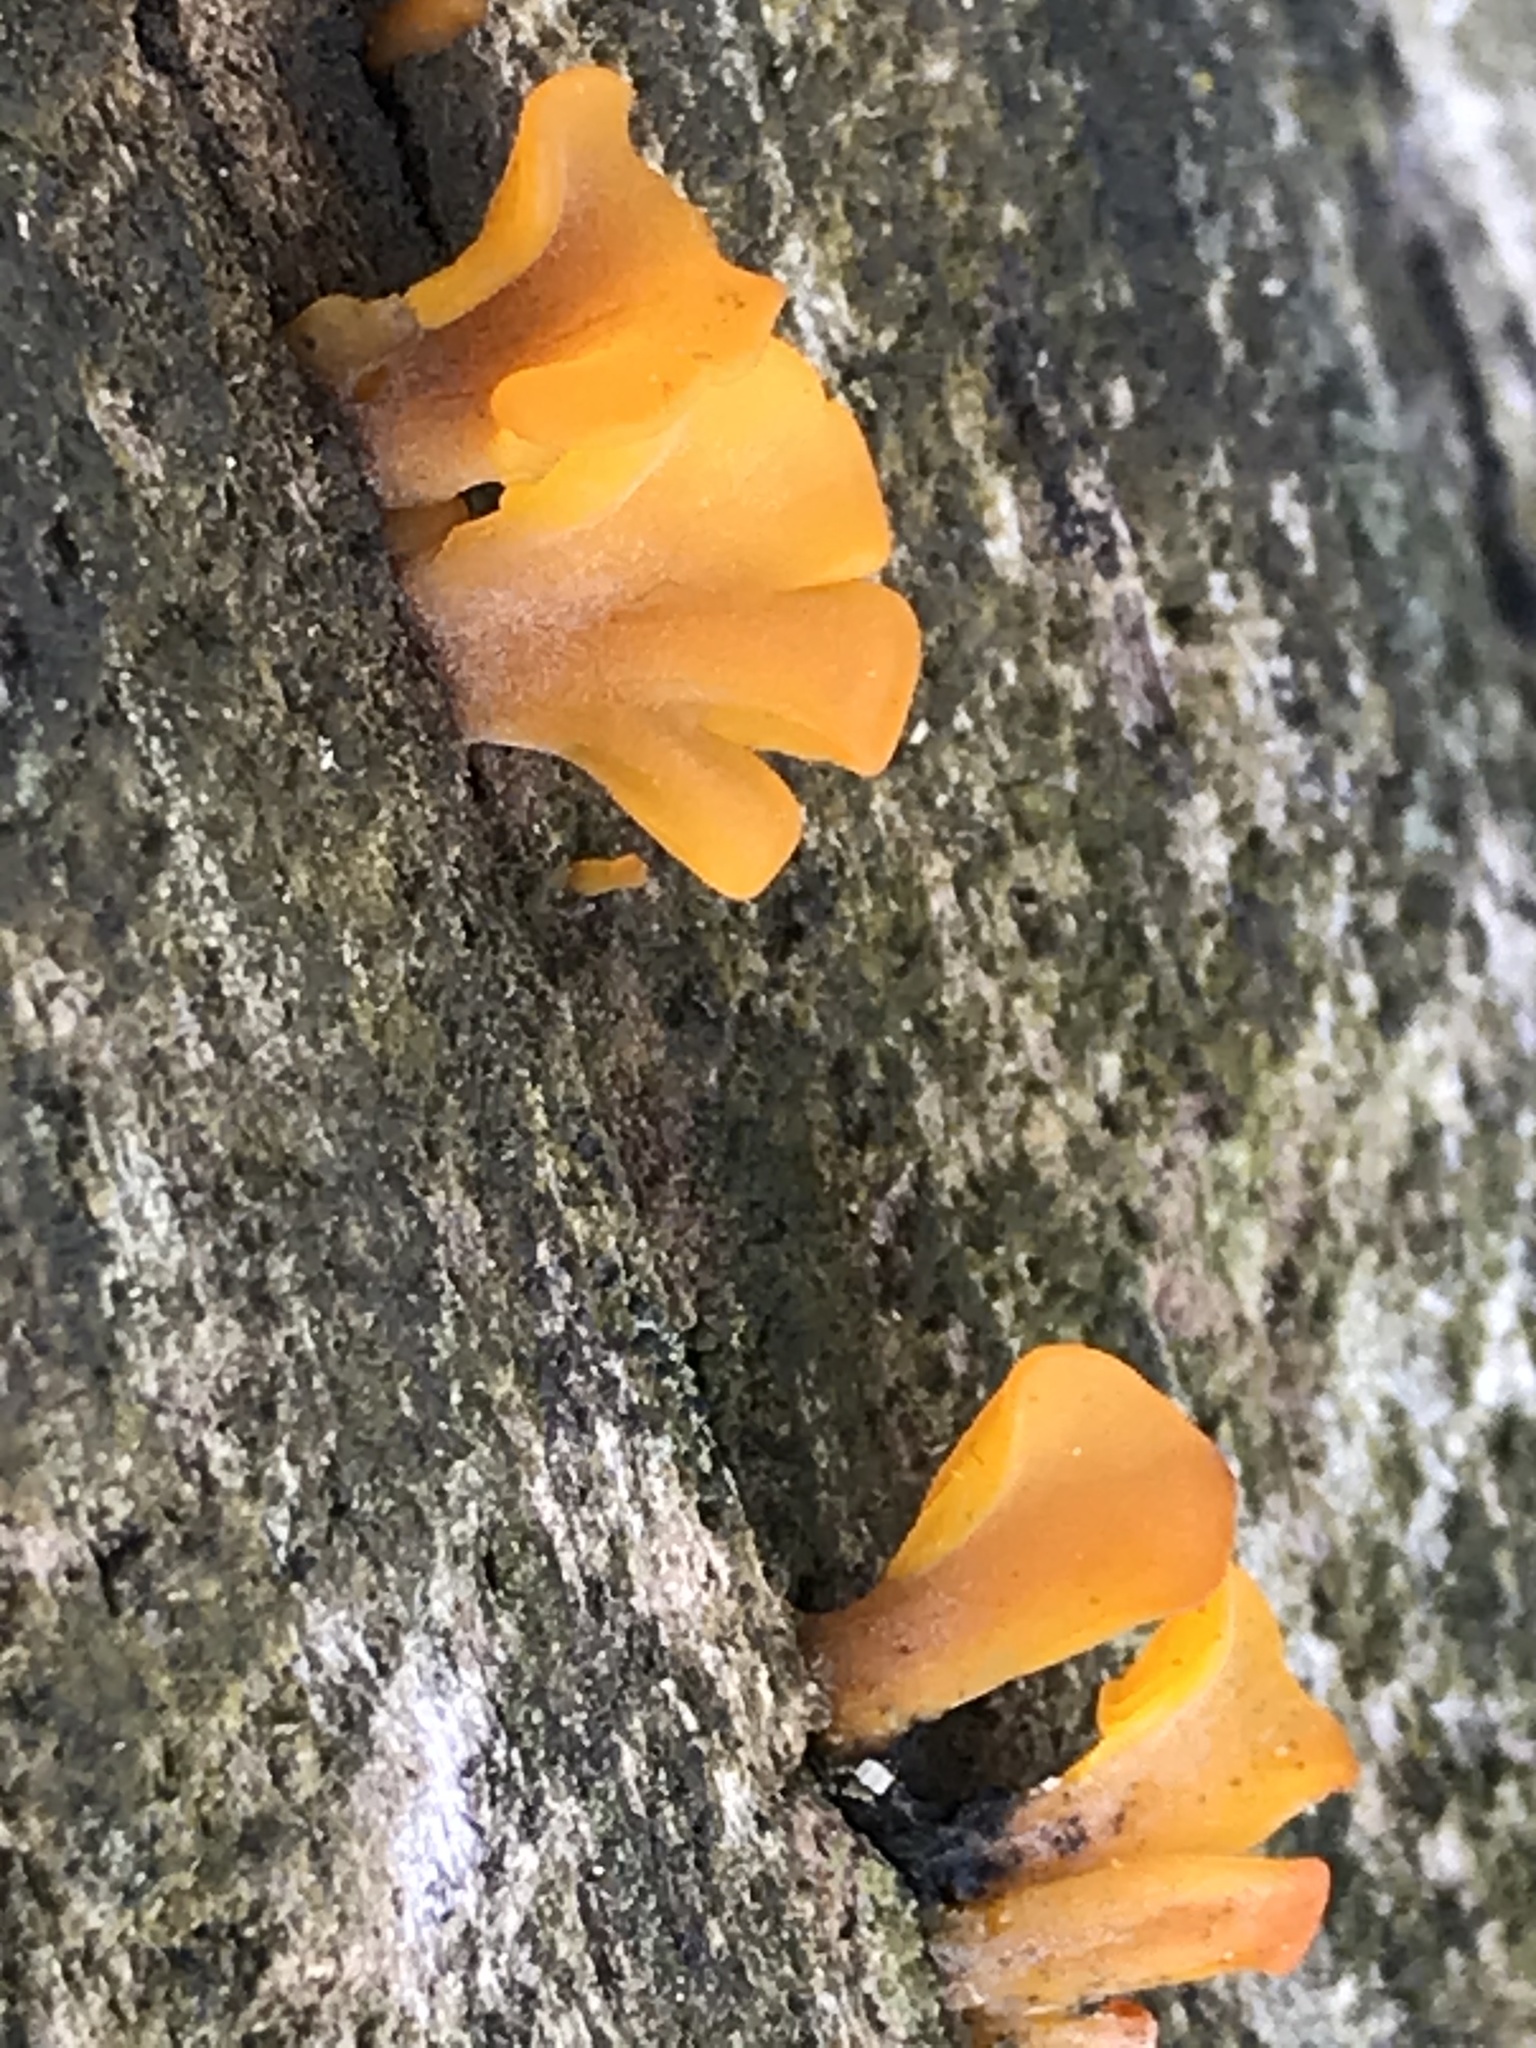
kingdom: Fungi
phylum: Basidiomycota
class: Dacrymycetes
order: Dacrymycetales
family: Dacrymycetaceae
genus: Dacrymyces
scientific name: Dacrymyces spathularius
